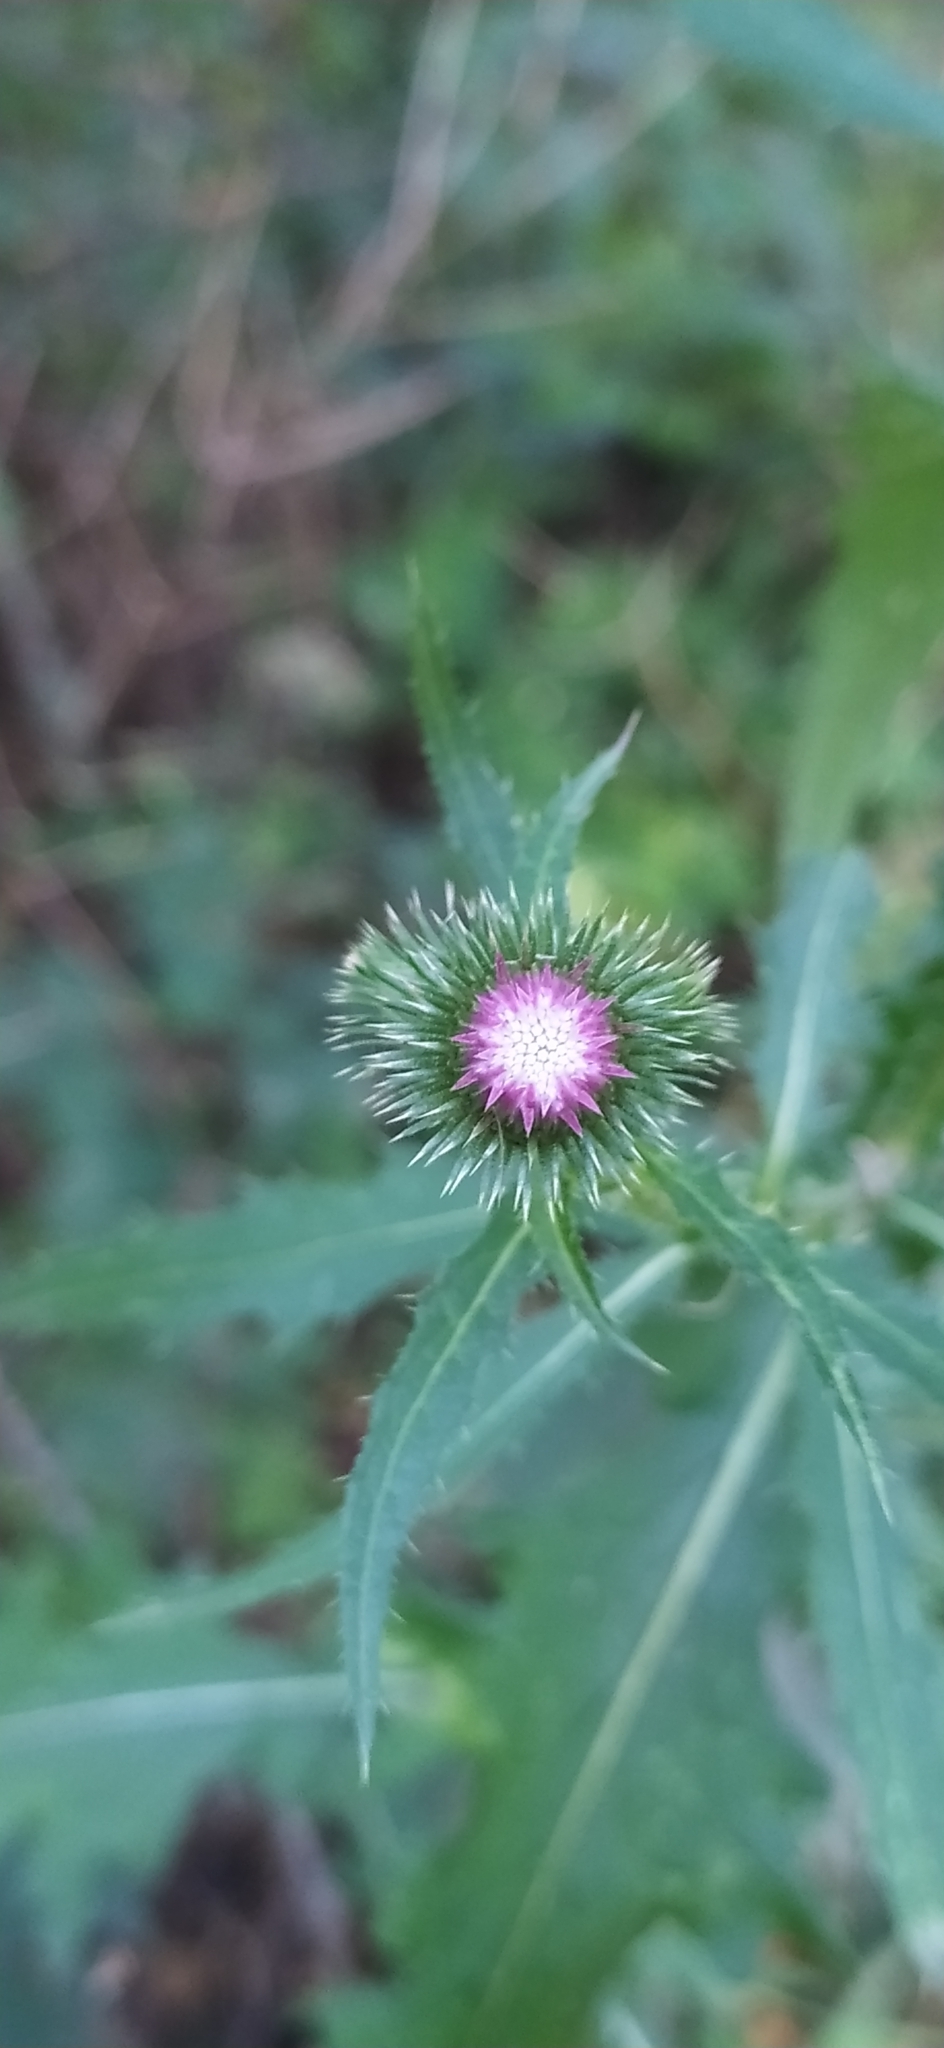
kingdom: Plantae
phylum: Tracheophyta
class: Magnoliopsida
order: Asterales
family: Asteraceae
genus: Carduus
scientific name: Carduus crispus
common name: Welted thistle
